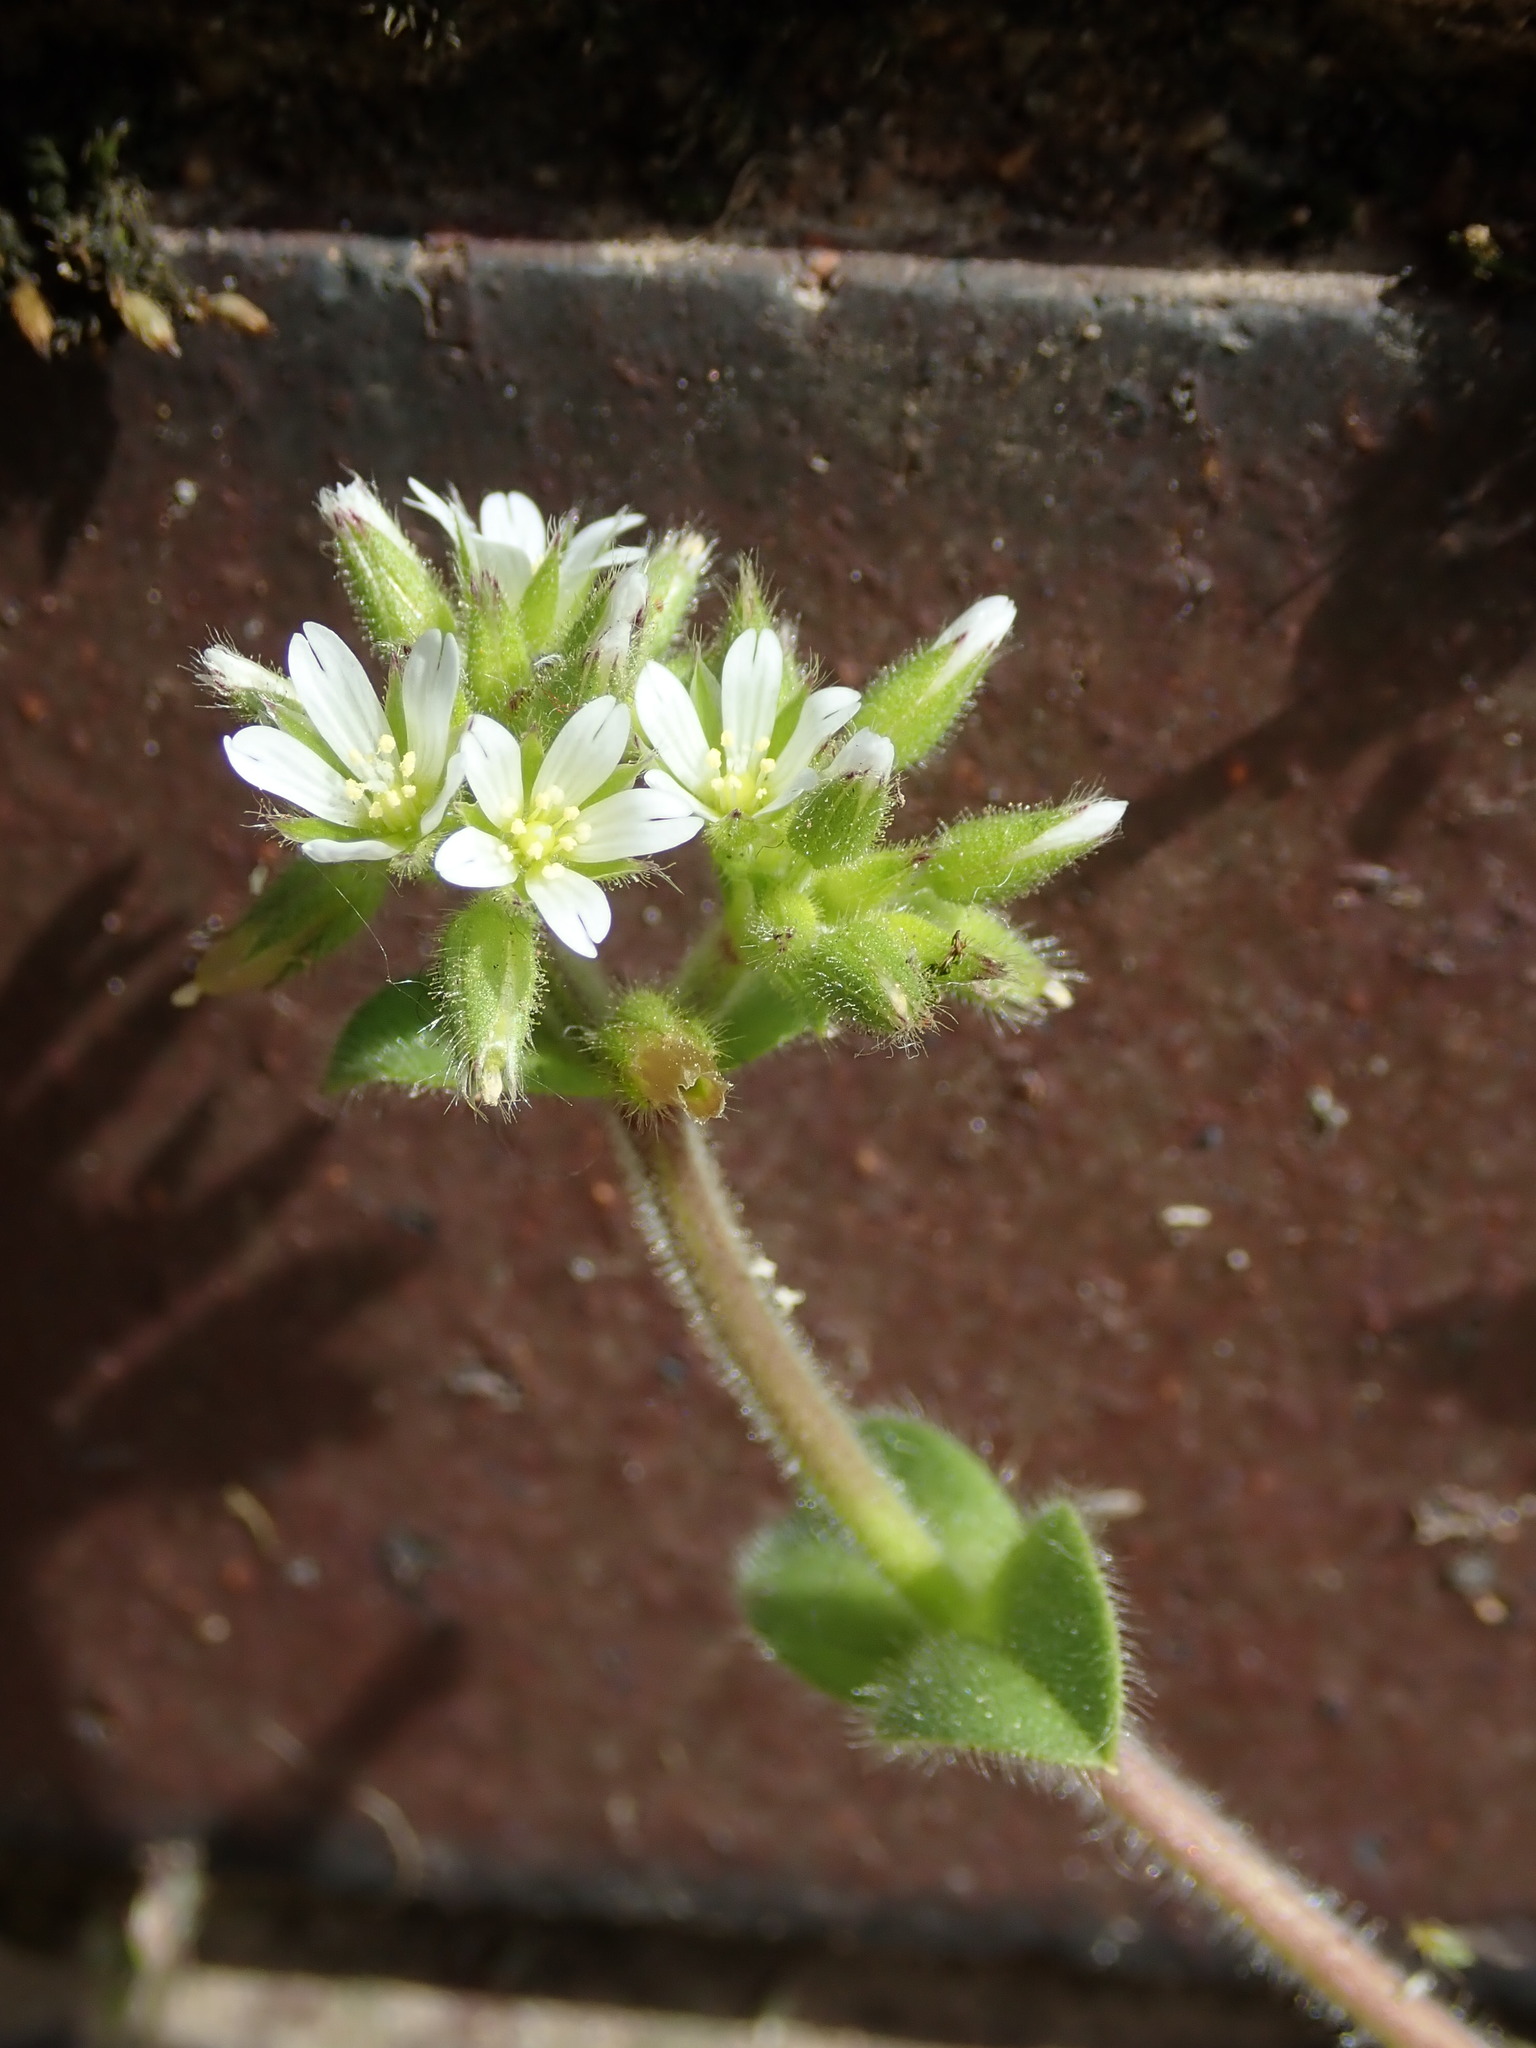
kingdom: Plantae
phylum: Tracheophyta
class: Magnoliopsida
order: Caryophyllales
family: Caryophyllaceae
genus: Cerastium
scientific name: Cerastium glomeratum
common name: Sticky chickweed
